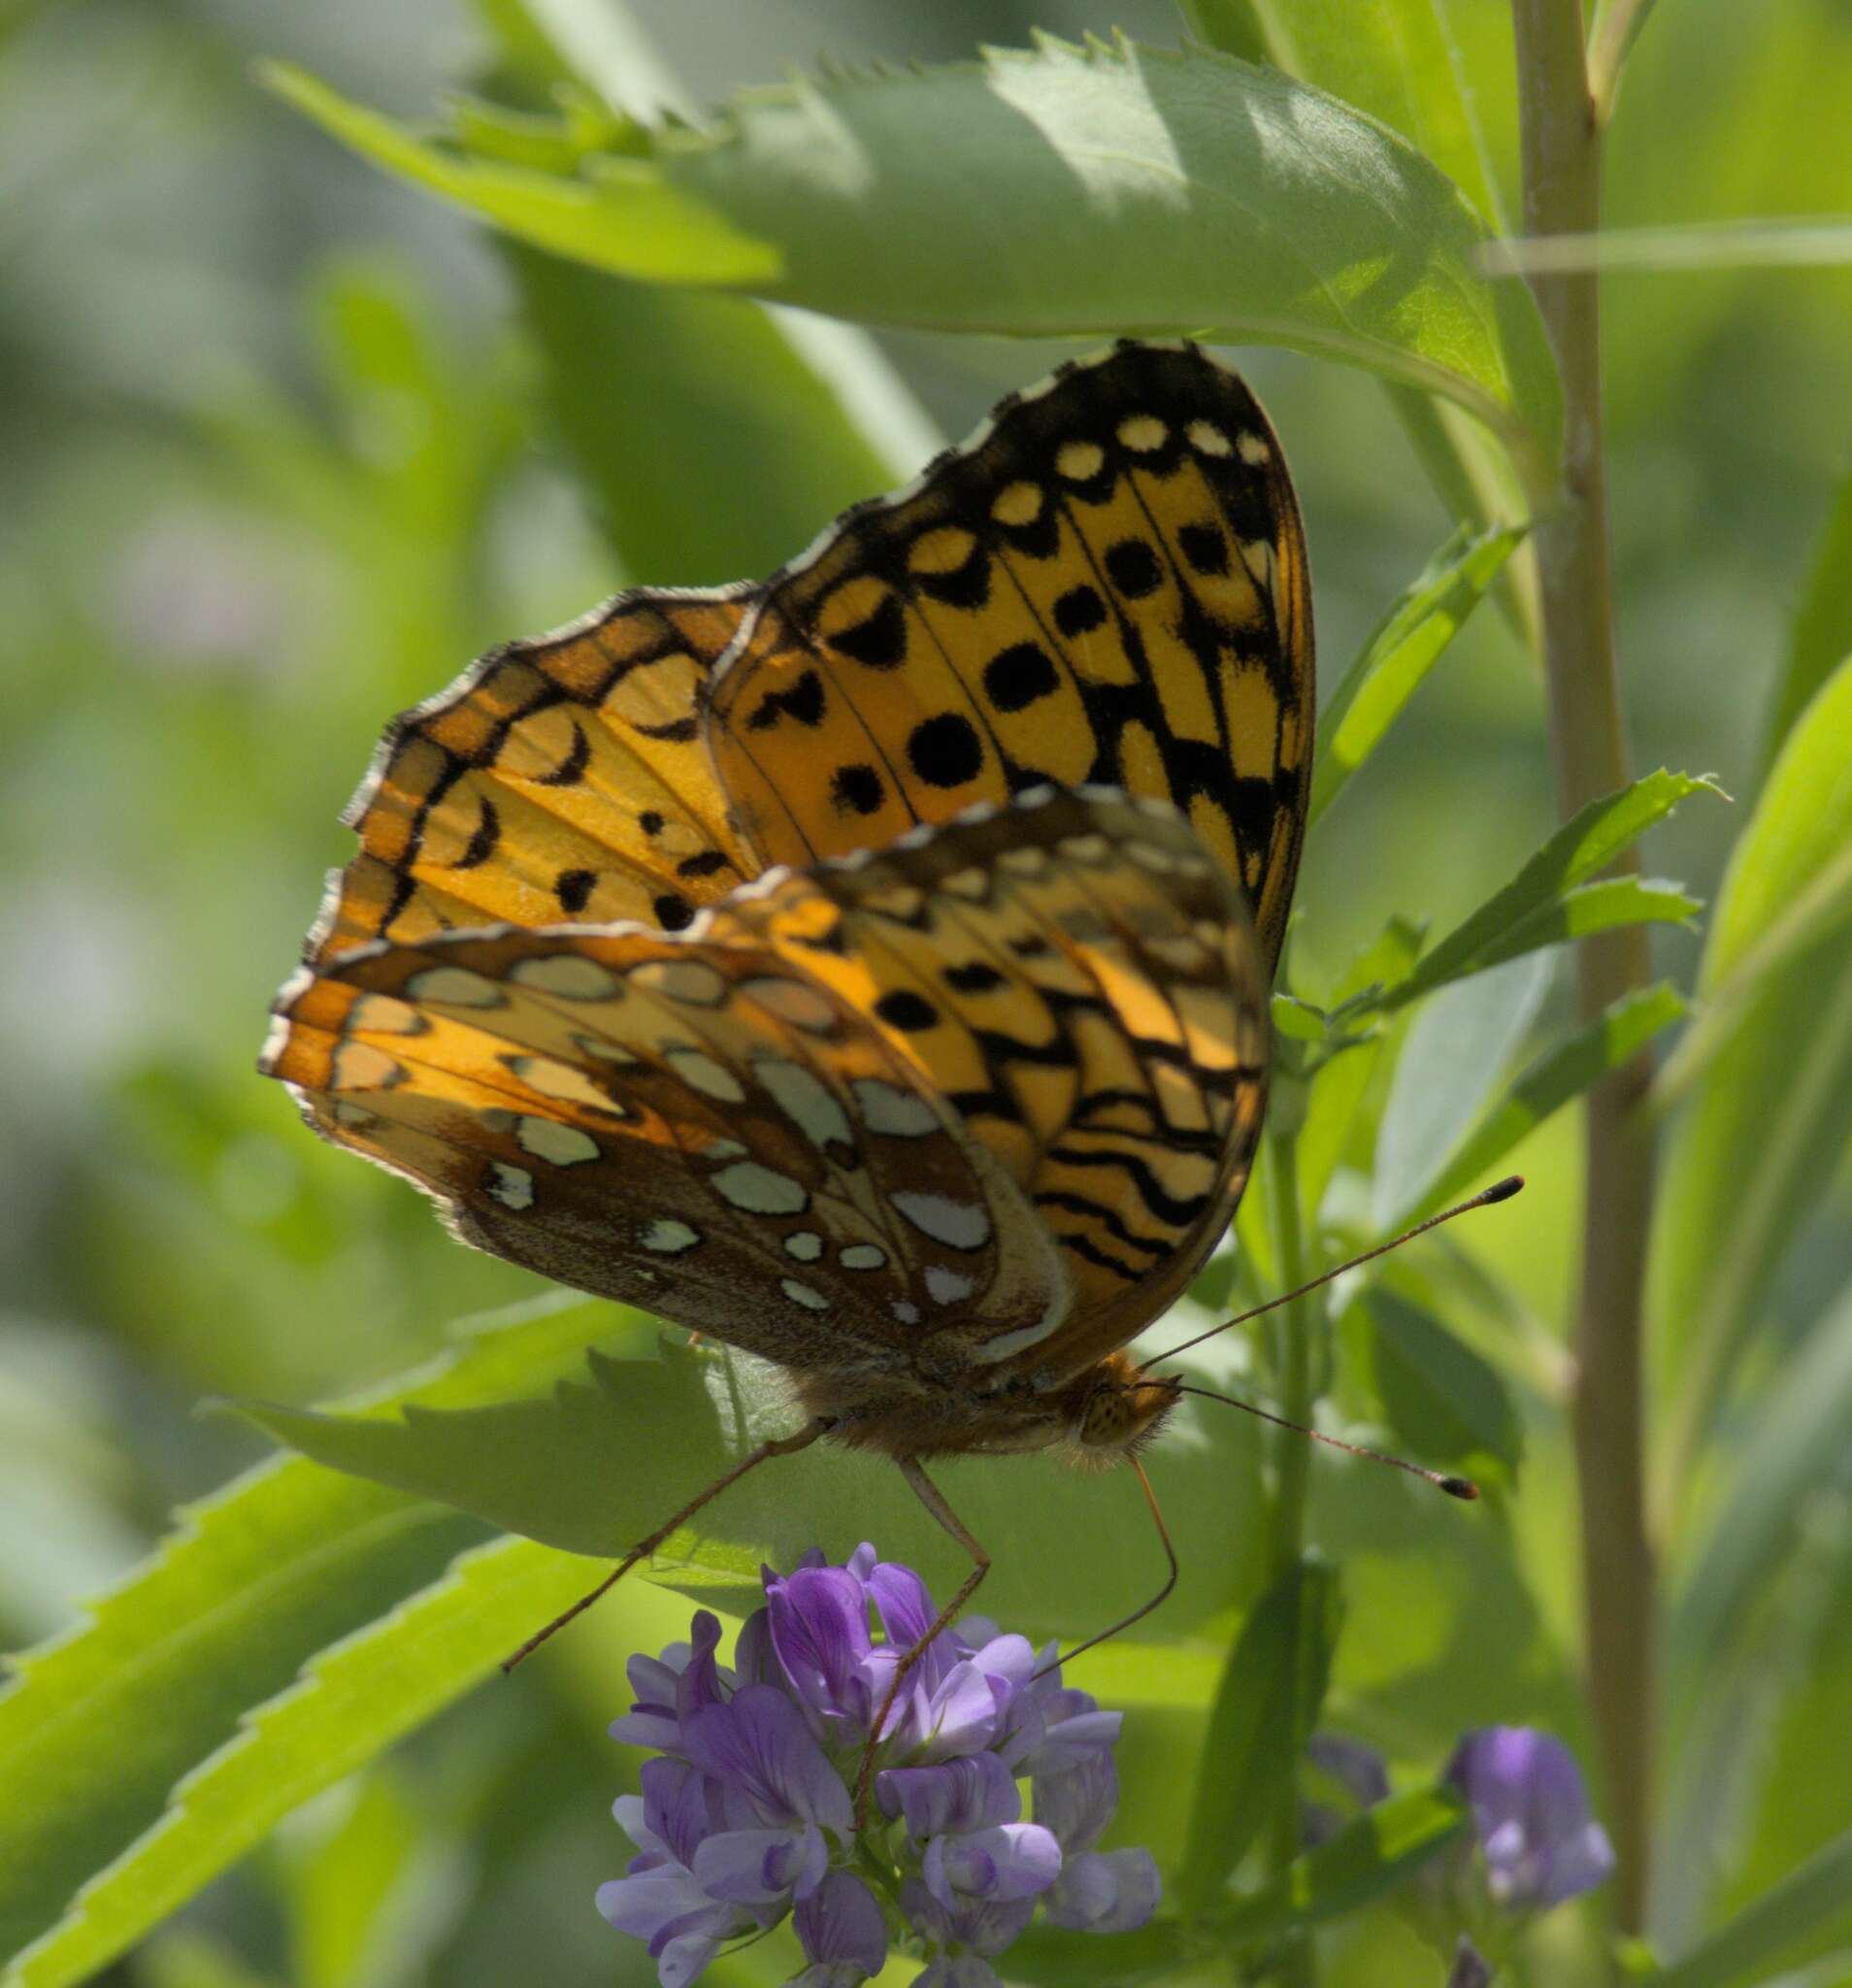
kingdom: Animalia
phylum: Arthropoda
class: Insecta
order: Lepidoptera
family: Nymphalidae
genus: Speyeria
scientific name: Speyeria cybele
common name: Great spangled fritillary
